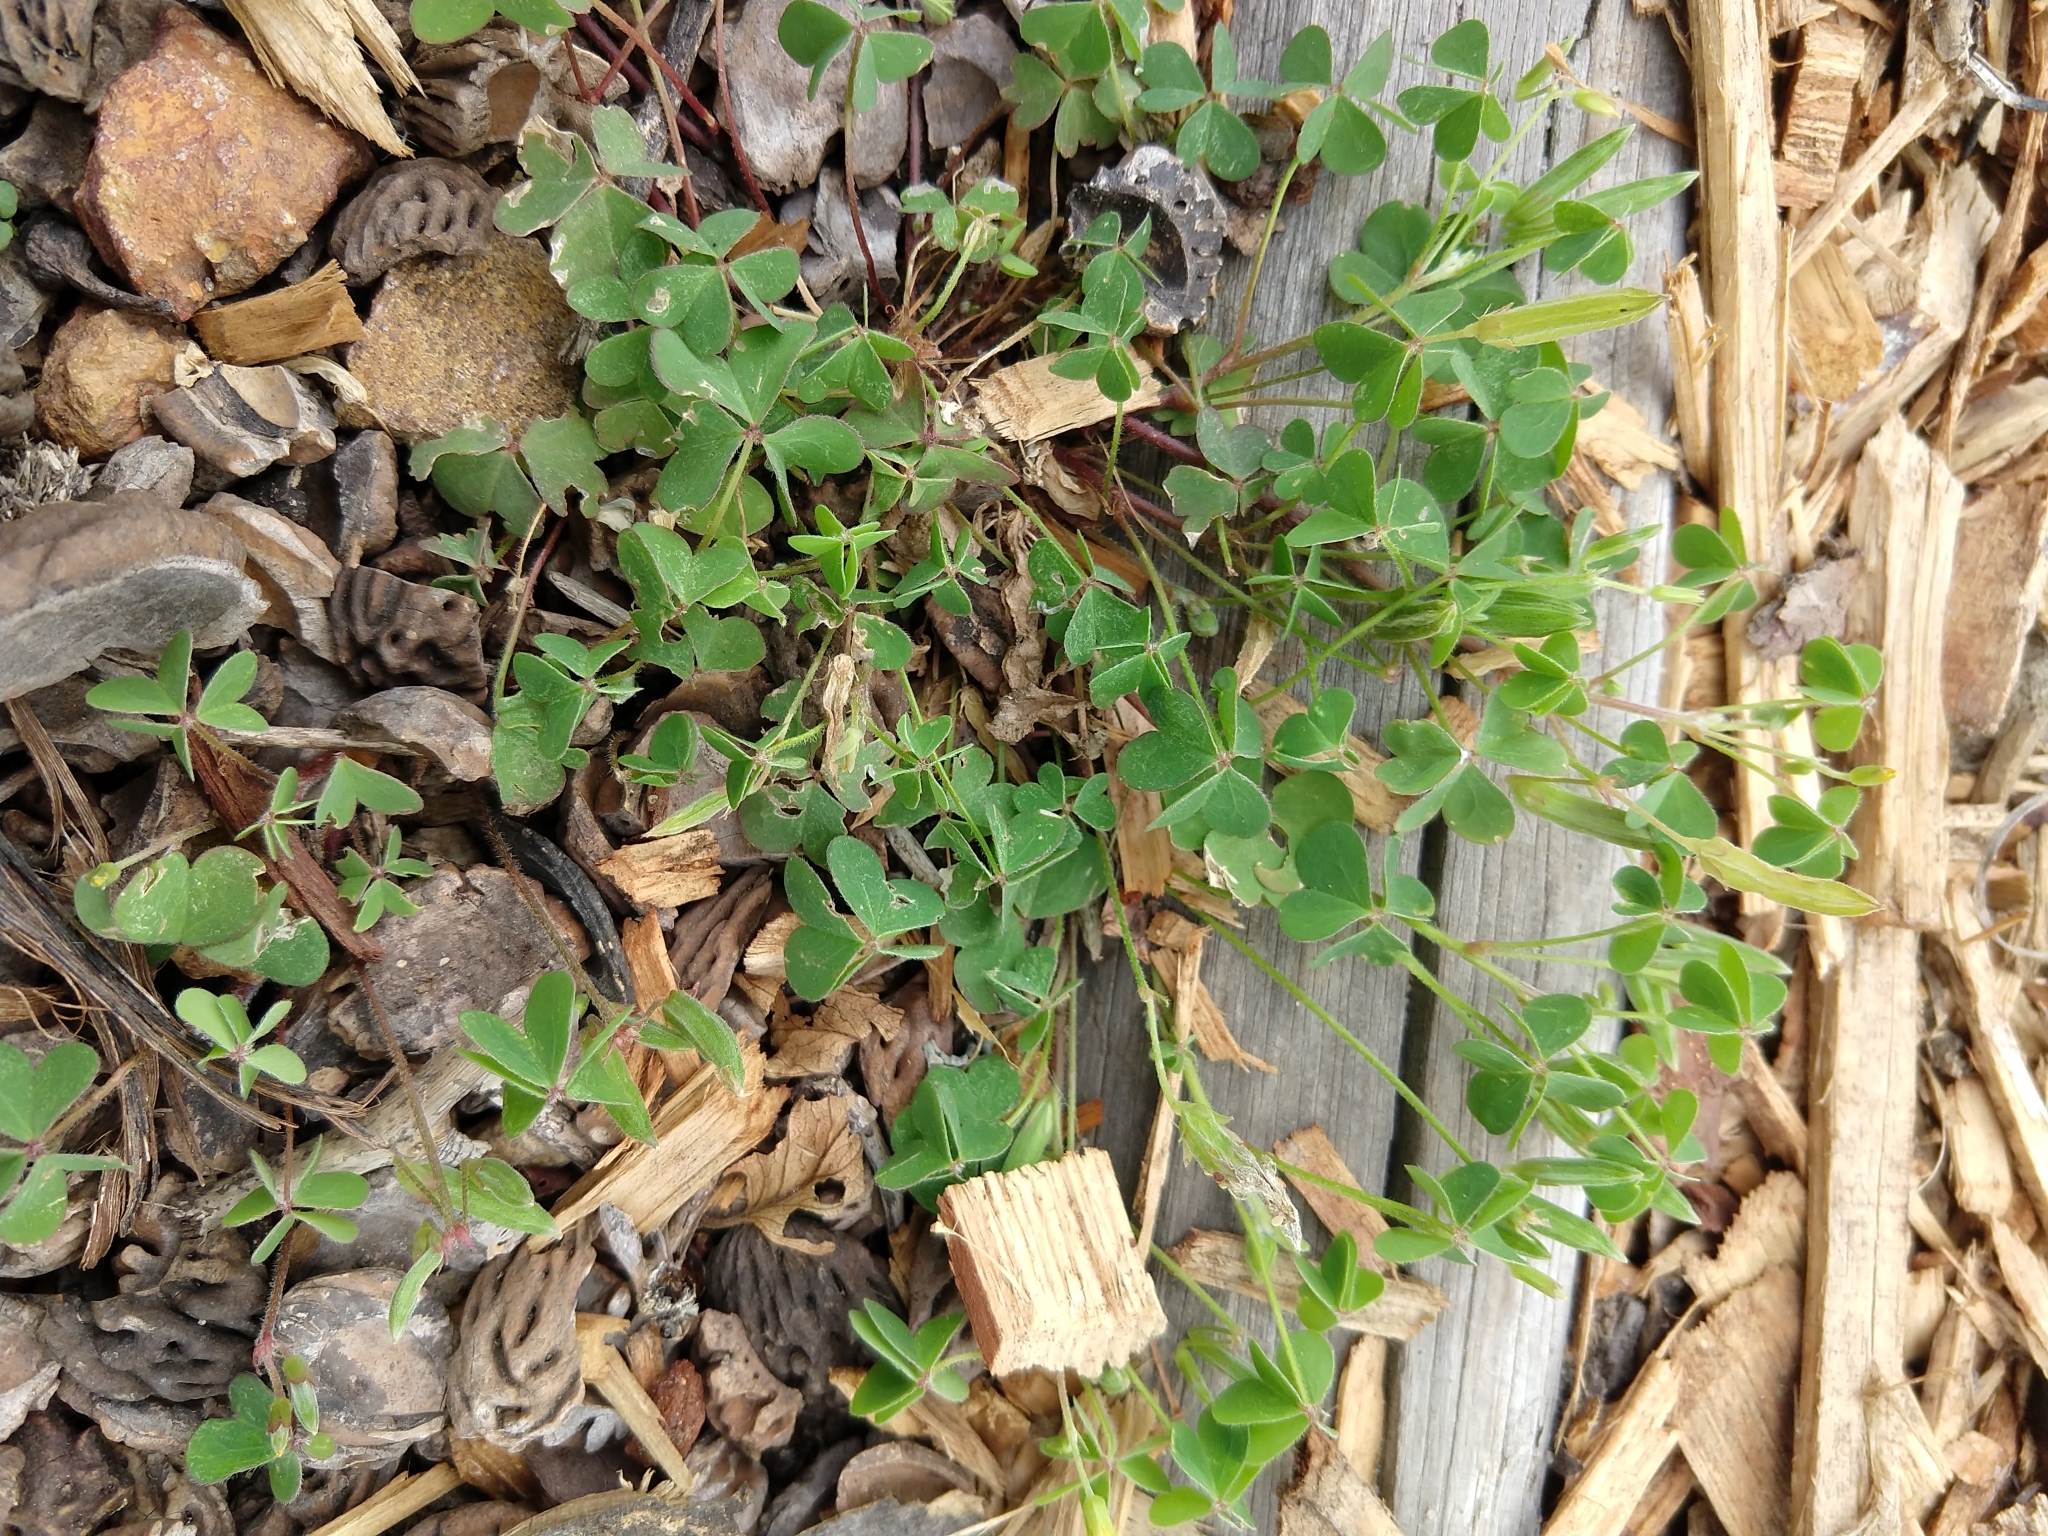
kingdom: Plantae
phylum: Tracheophyta
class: Magnoliopsida
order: Oxalidales
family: Oxalidaceae
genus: Oxalis
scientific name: Oxalis corniculata
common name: Procumbent yellow-sorrel
